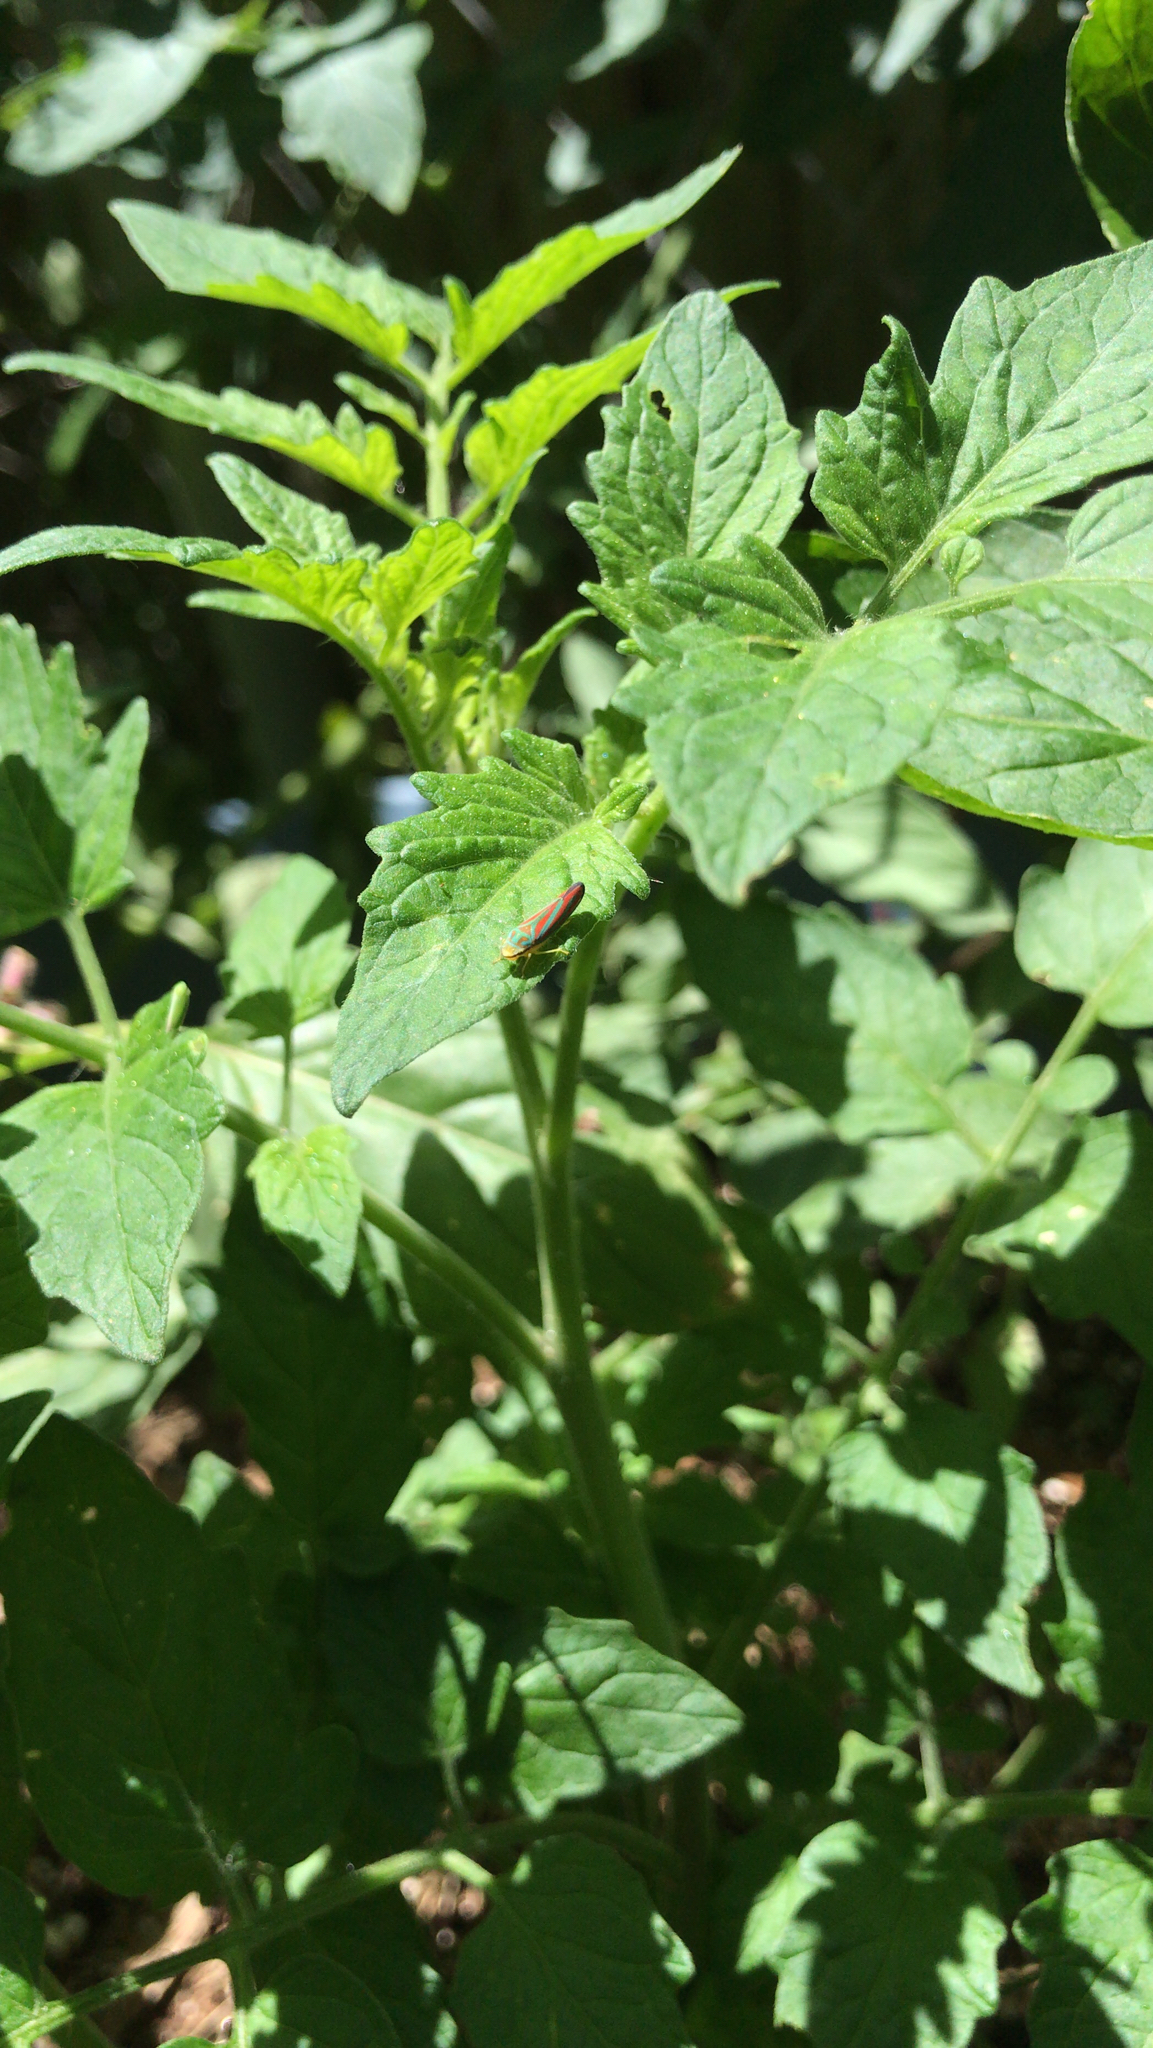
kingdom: Animalia
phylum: Arthropoda
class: Insecta
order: Hemiptera
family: Cicadellidae
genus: Graphocephala
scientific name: Graphocephala coccinea
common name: Candy-striped leafhopper
